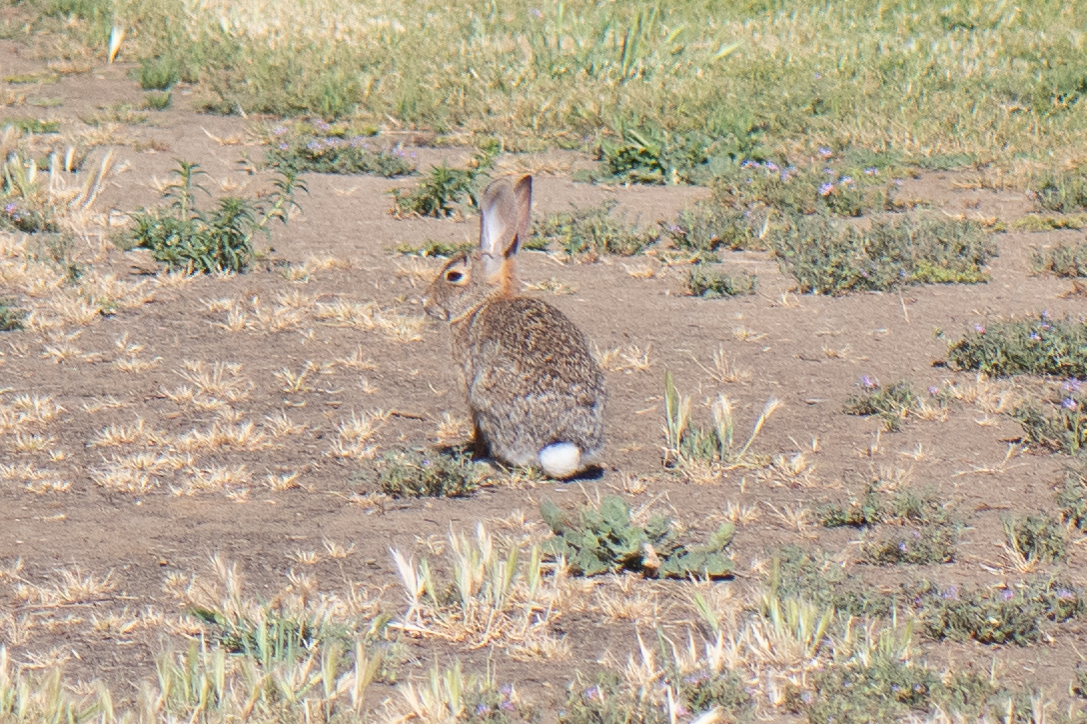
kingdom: Animalia
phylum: Chordata
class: Mammalia
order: Lagomorpha
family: Leporidae
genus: Sylvilagus
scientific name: Sylvilagus audubonii
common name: Desert cottontail
